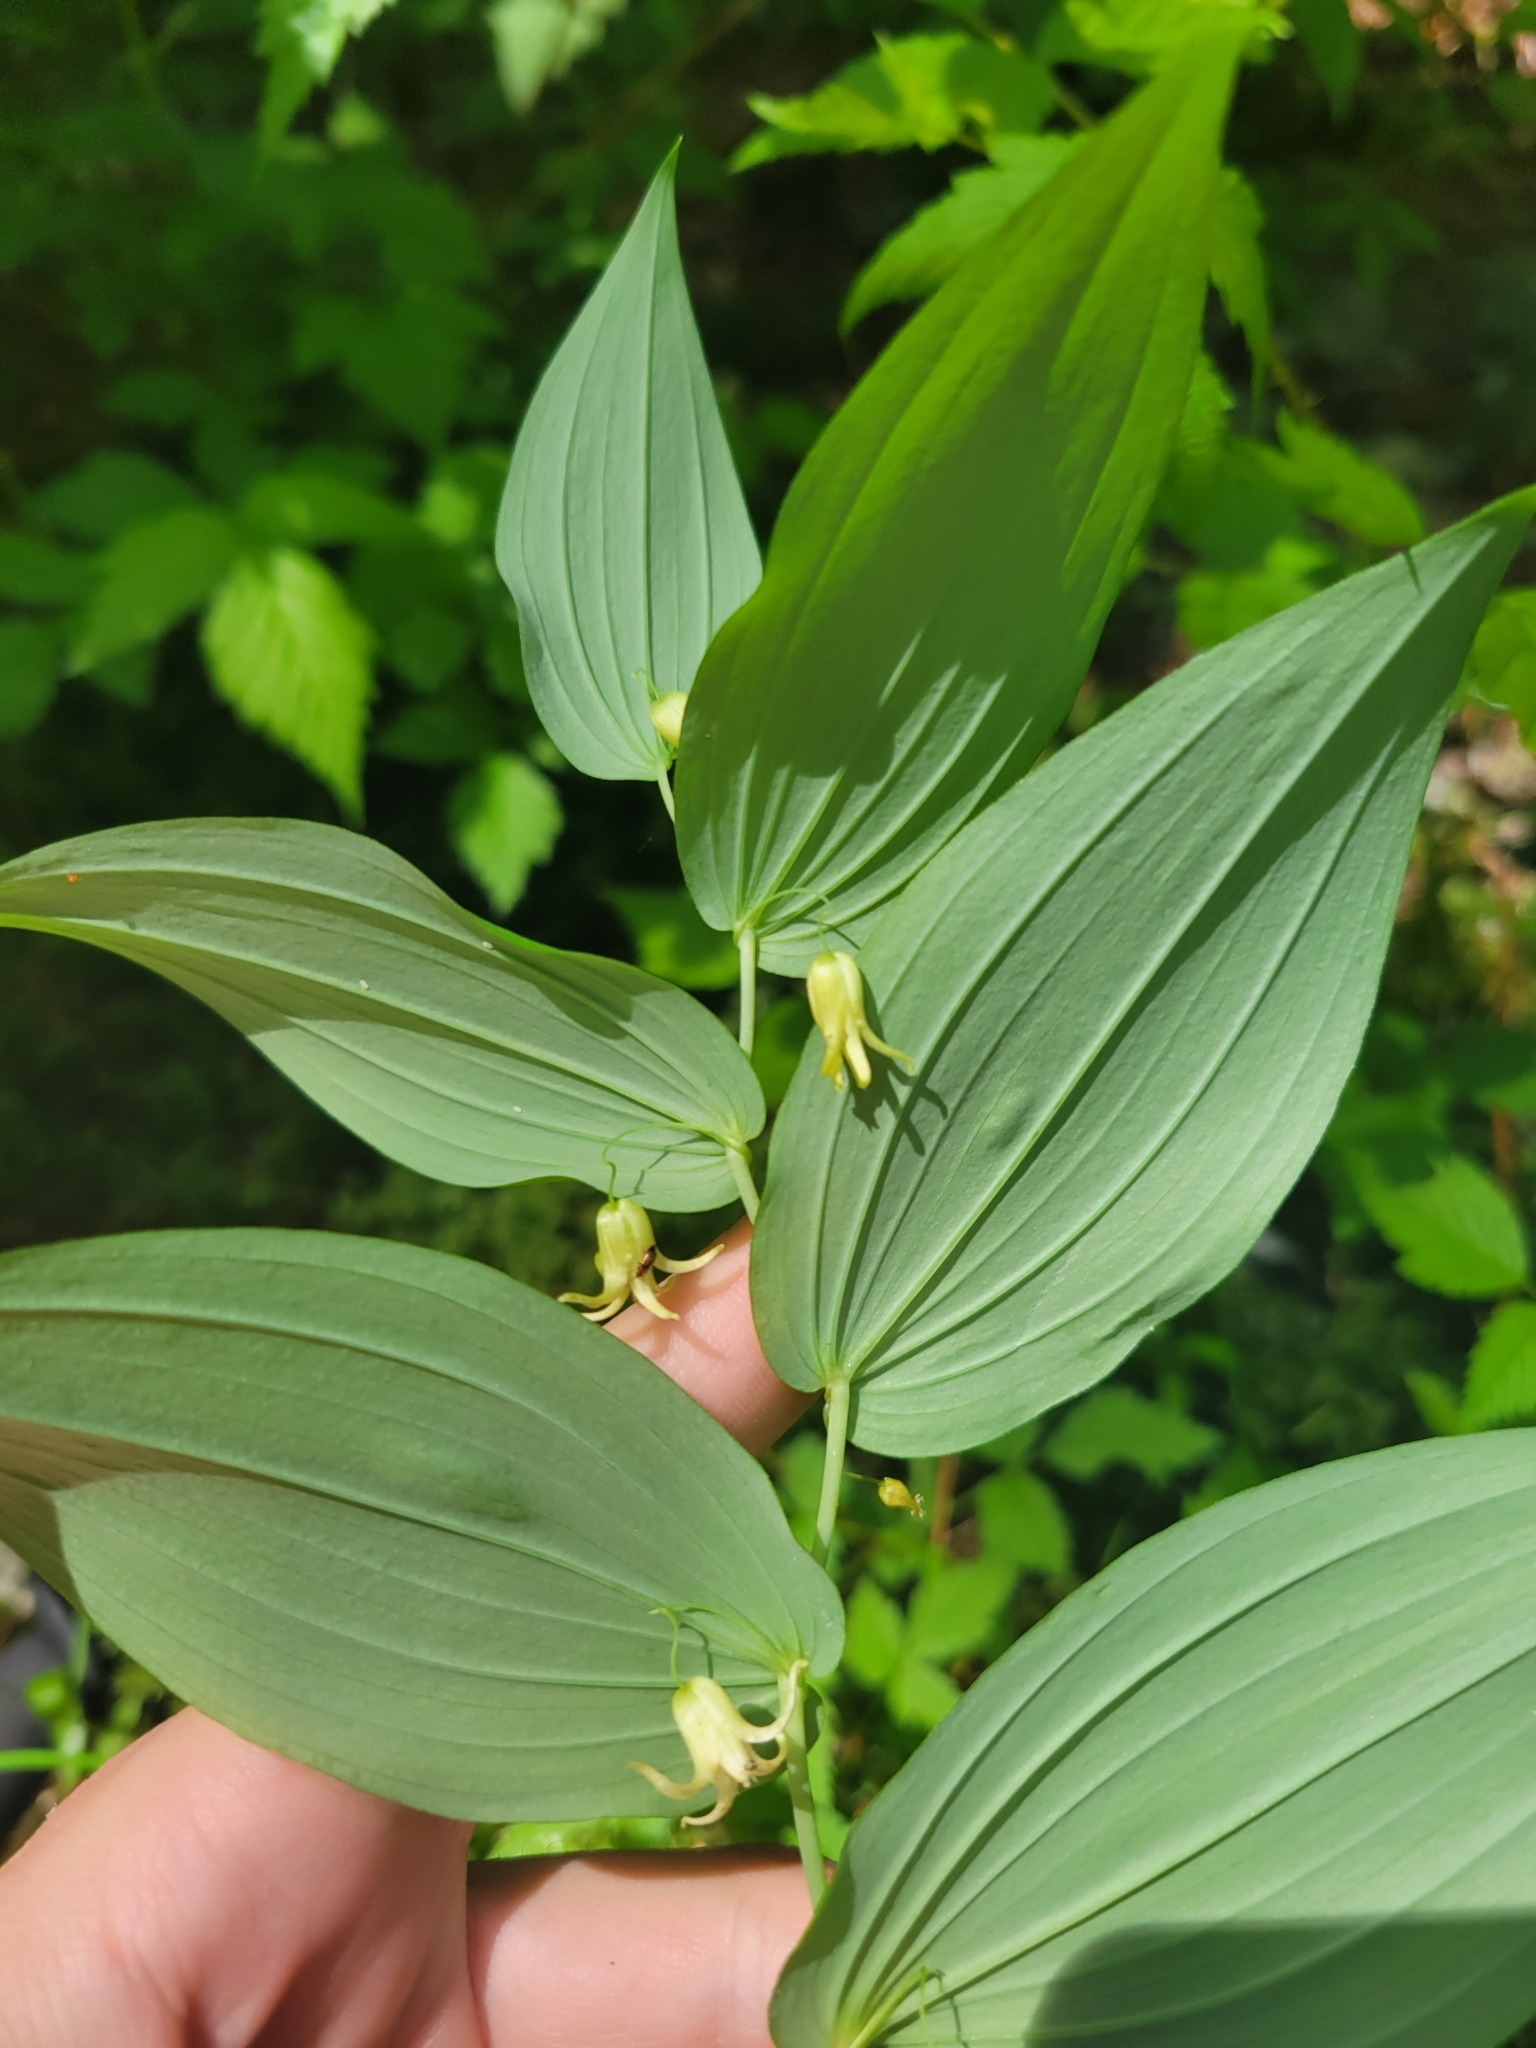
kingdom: Plantae
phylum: Tracheophyta
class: Liliopsida
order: Liliales
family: Liliaceae
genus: Streptopus
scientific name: Streptopus amplexifolius
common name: Clasp twisted stalk
